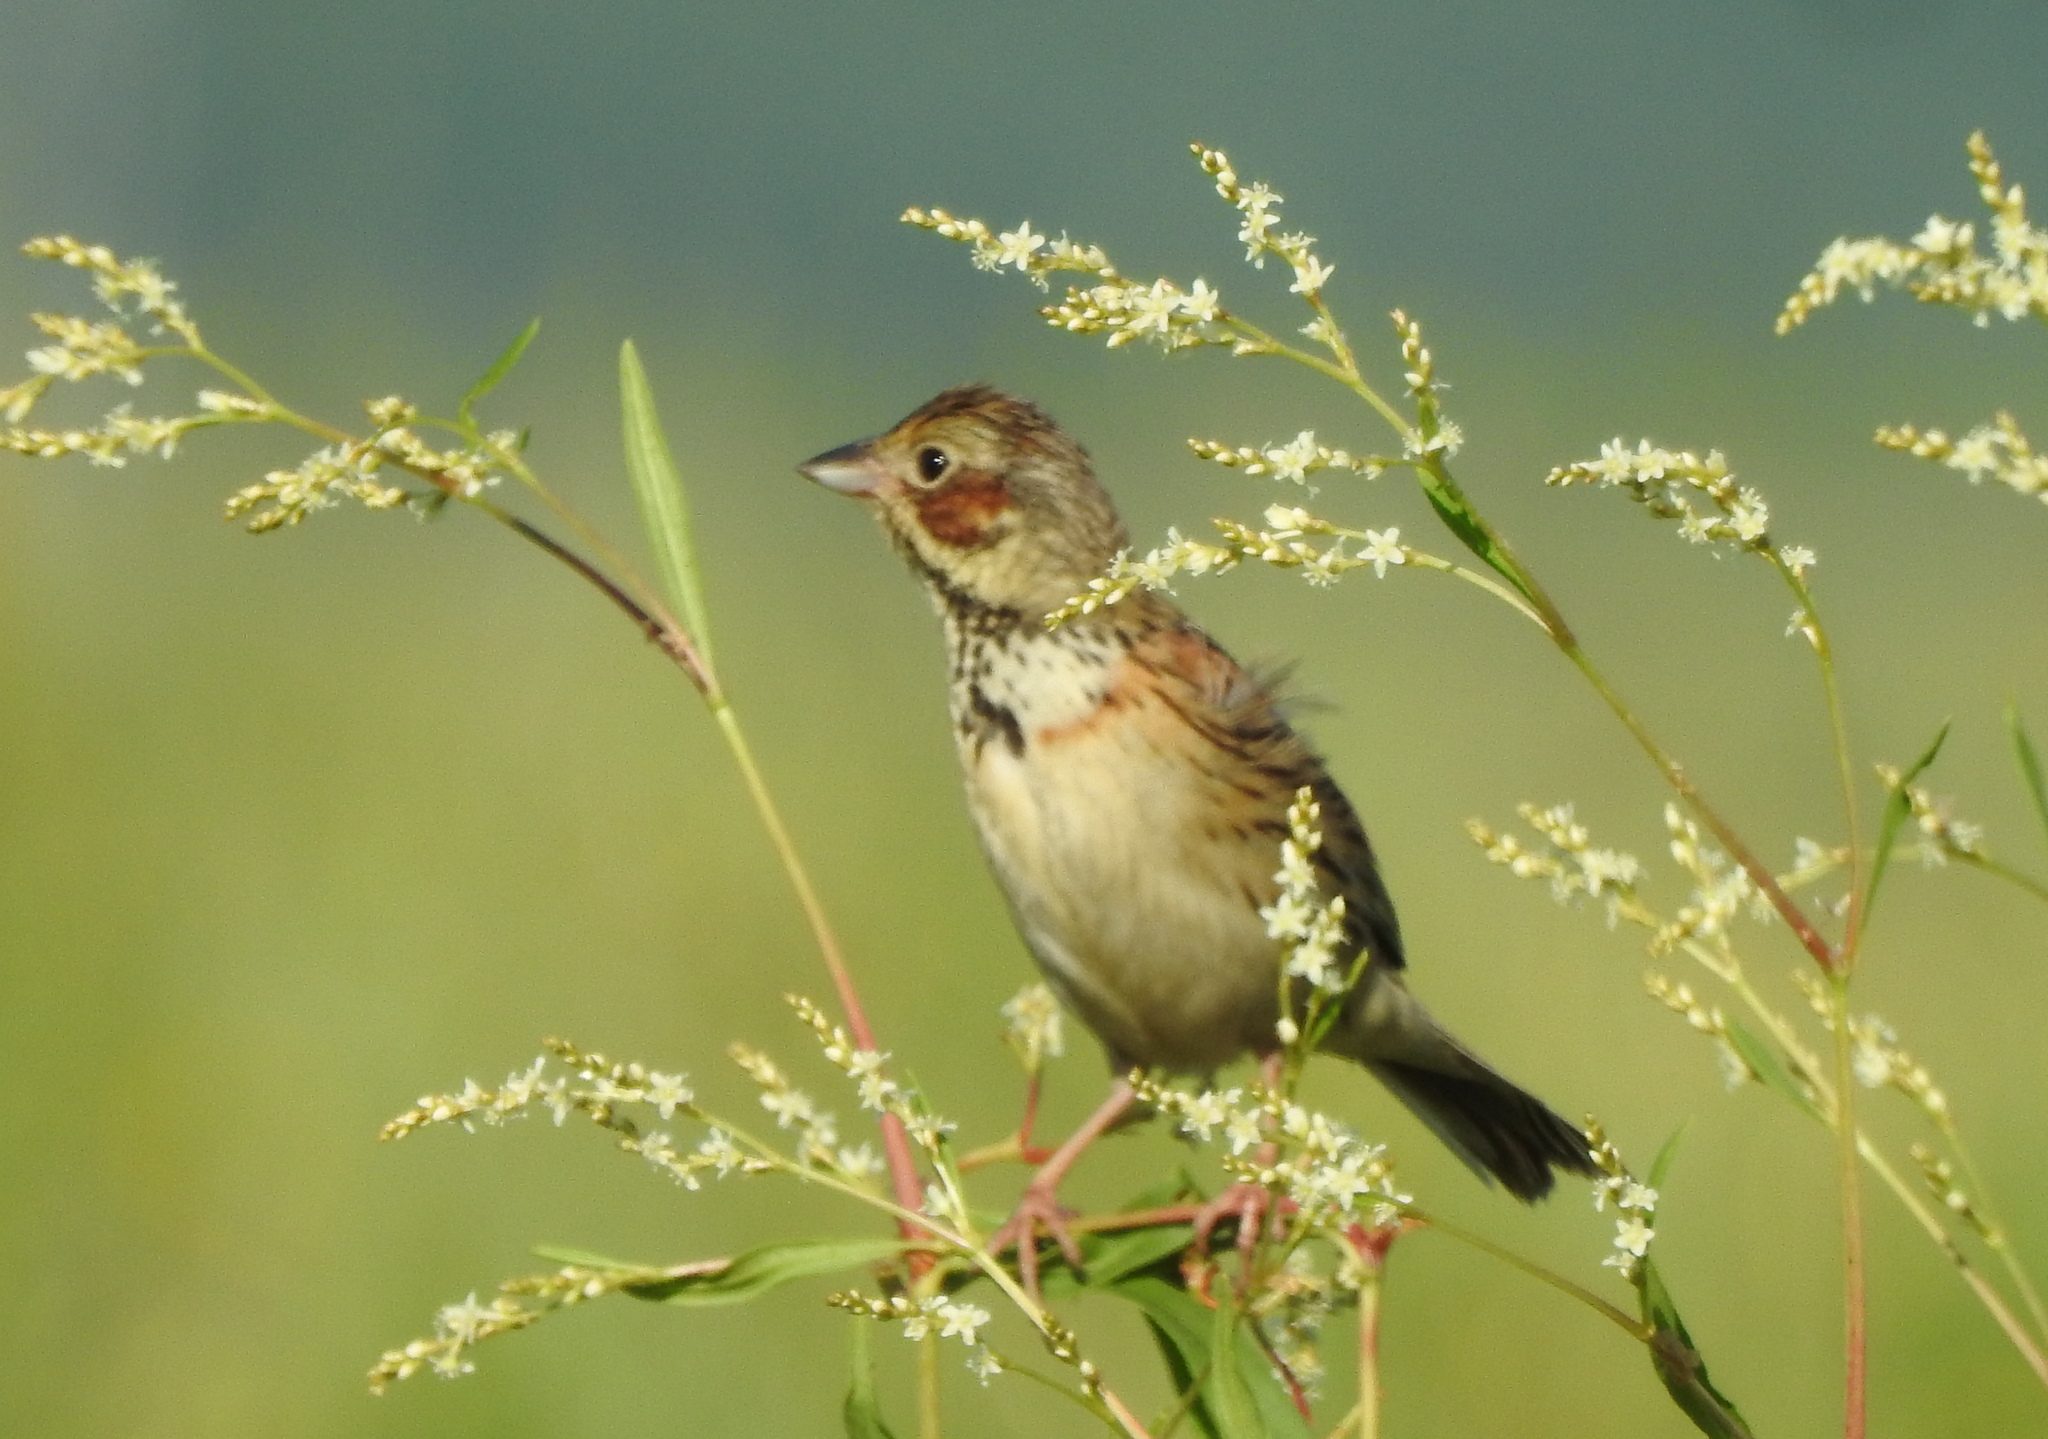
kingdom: Animalia
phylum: Chordata
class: Aves
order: Passeriformes
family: Emberizidae
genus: Emberiza
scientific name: Emberiza fucata
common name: Chestnut-eared bunting
